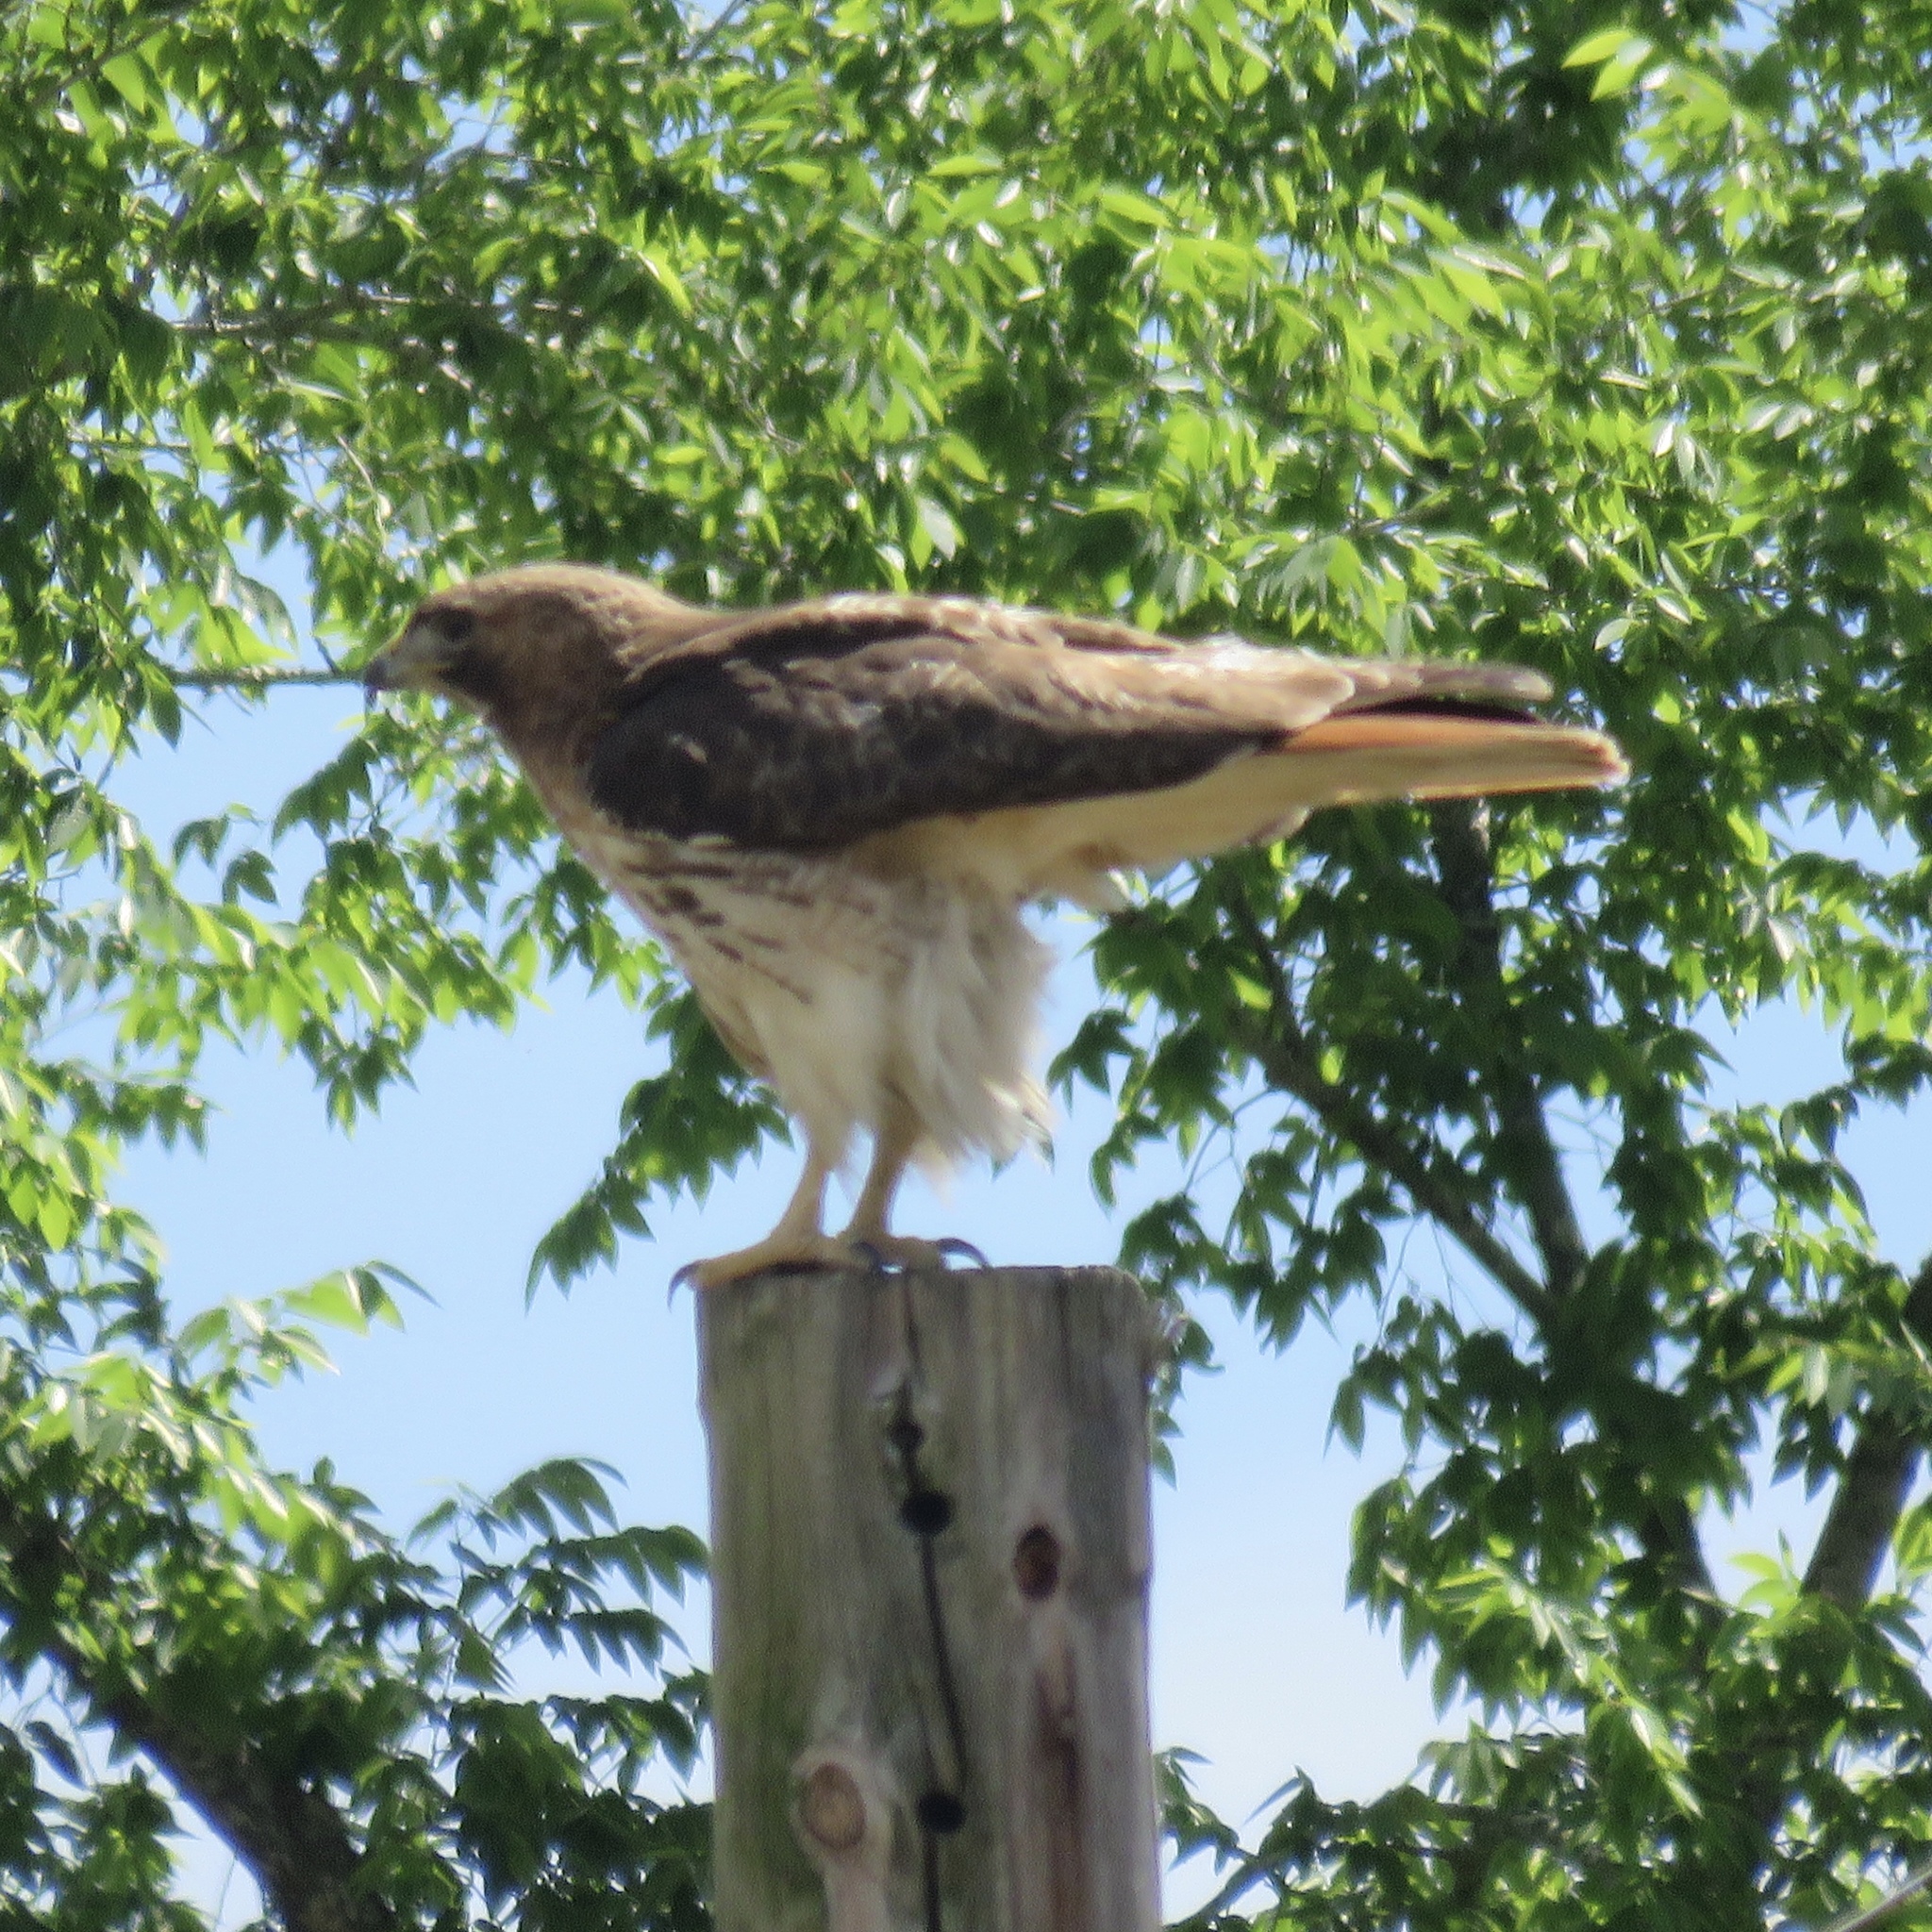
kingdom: Animalia
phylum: Chordata
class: Aves
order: Accipitriformes
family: Accipitridae
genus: Buteo
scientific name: Buteo jamaicensis
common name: Red-tailed hawk
